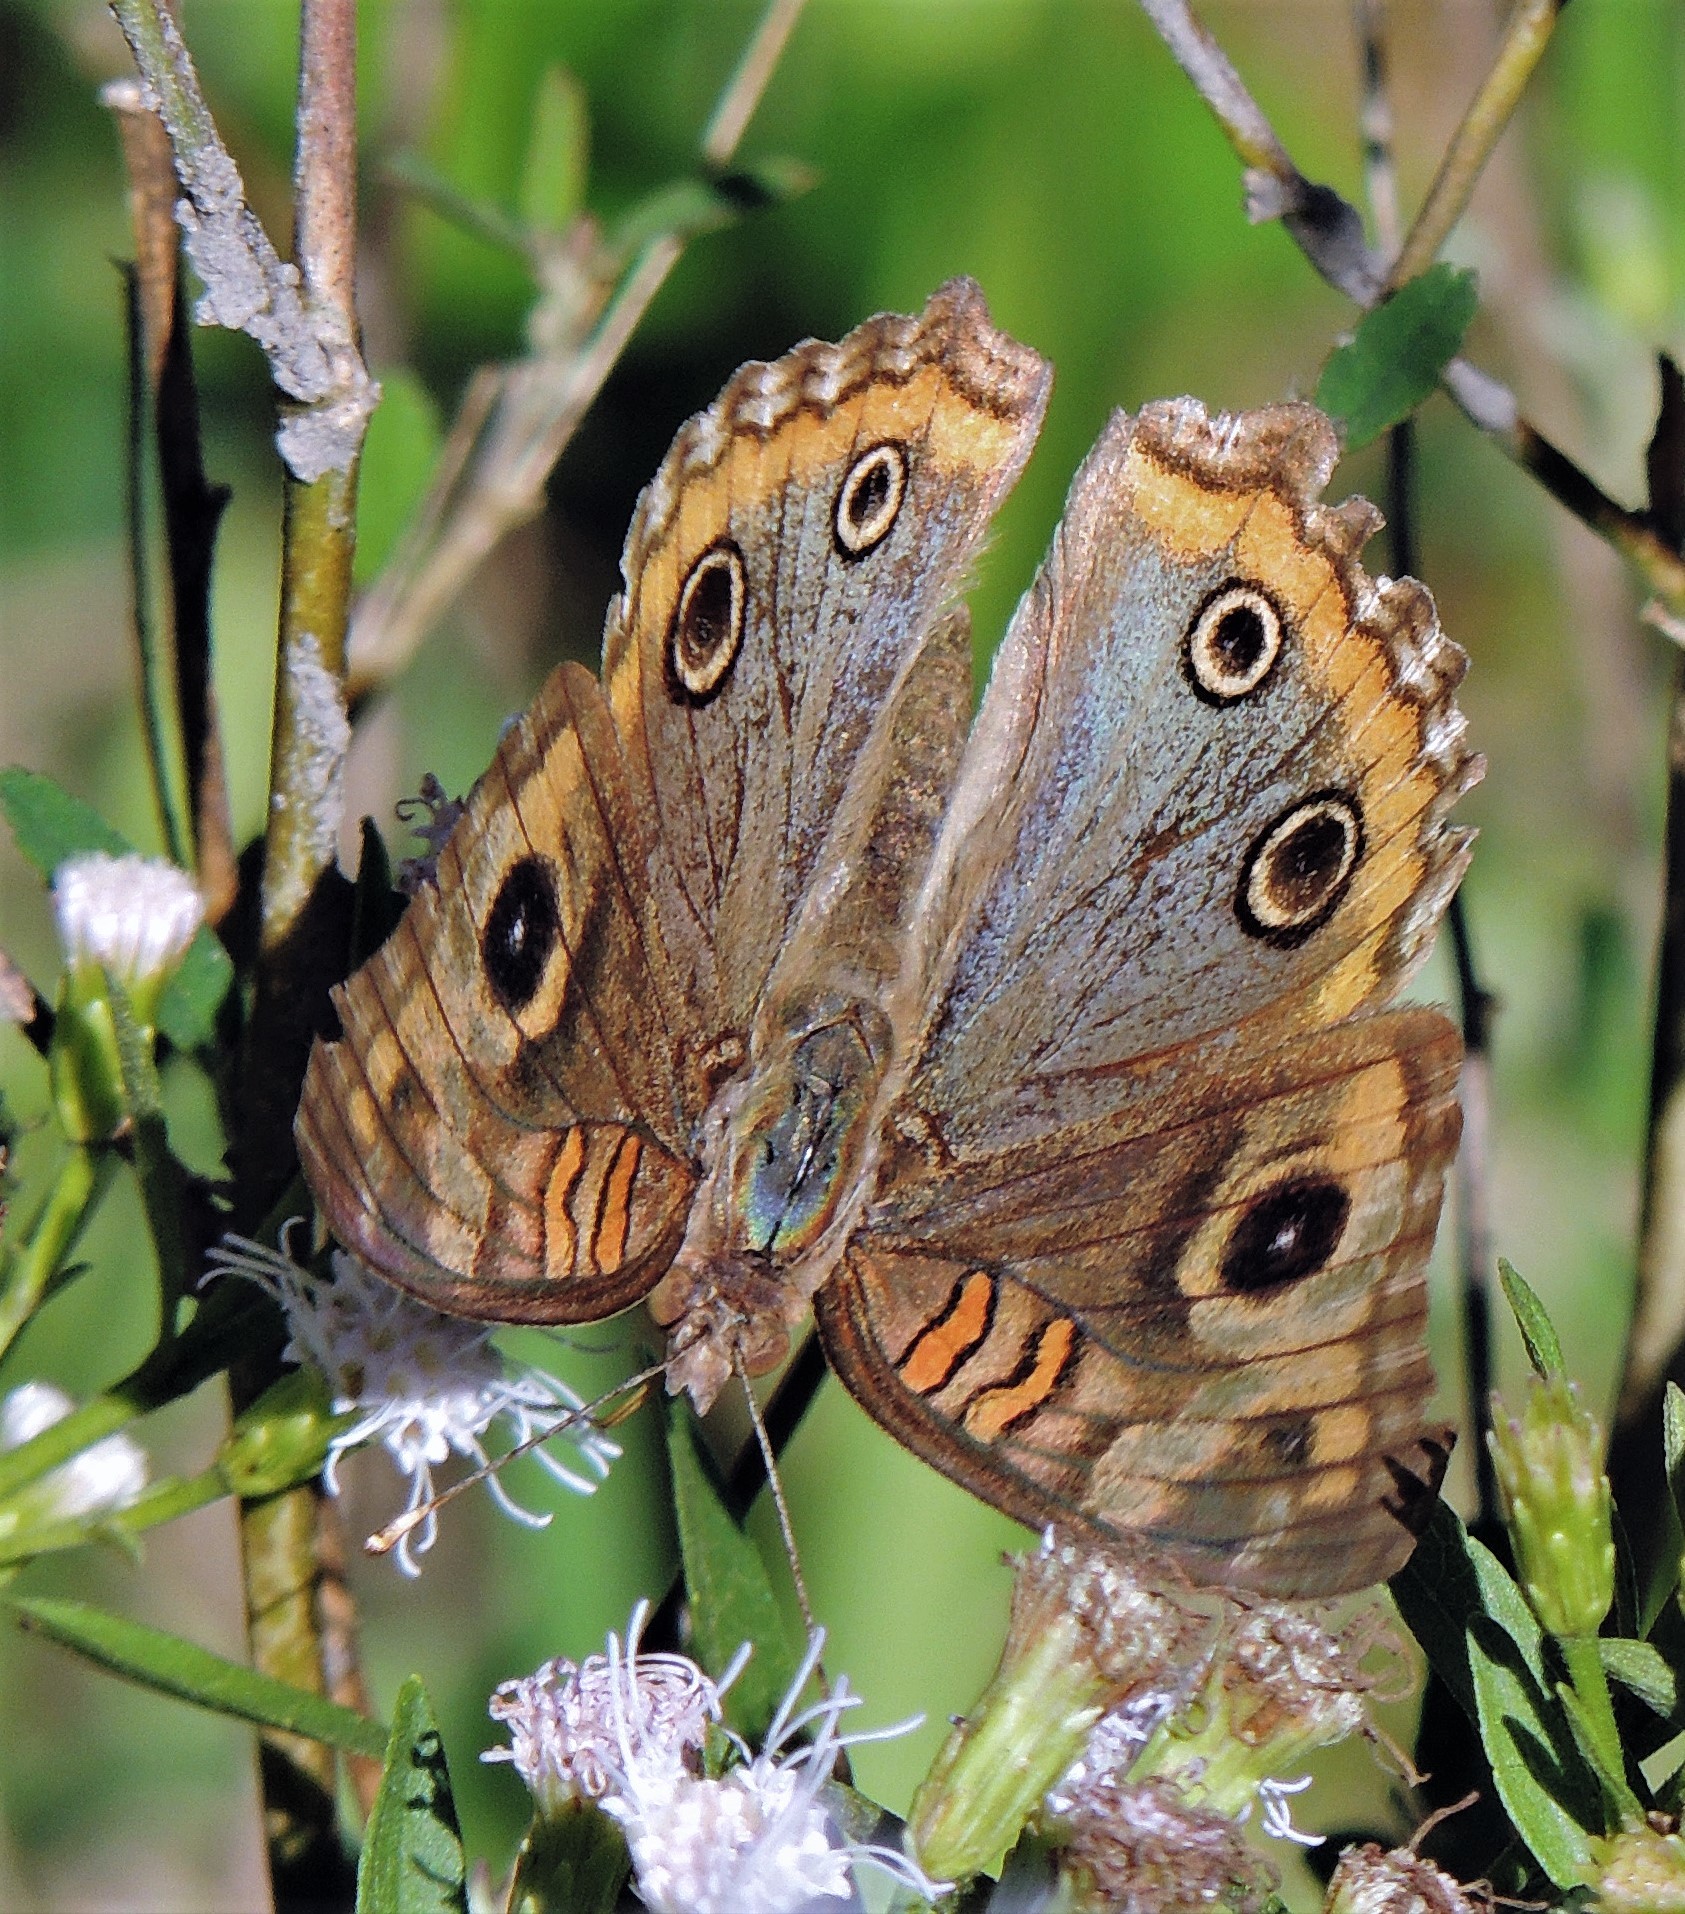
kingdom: Animalia
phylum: Arthropoda
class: Insecta
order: Lepidoptera
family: Nymphalidae
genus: Junonia
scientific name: Junonia lavinia
